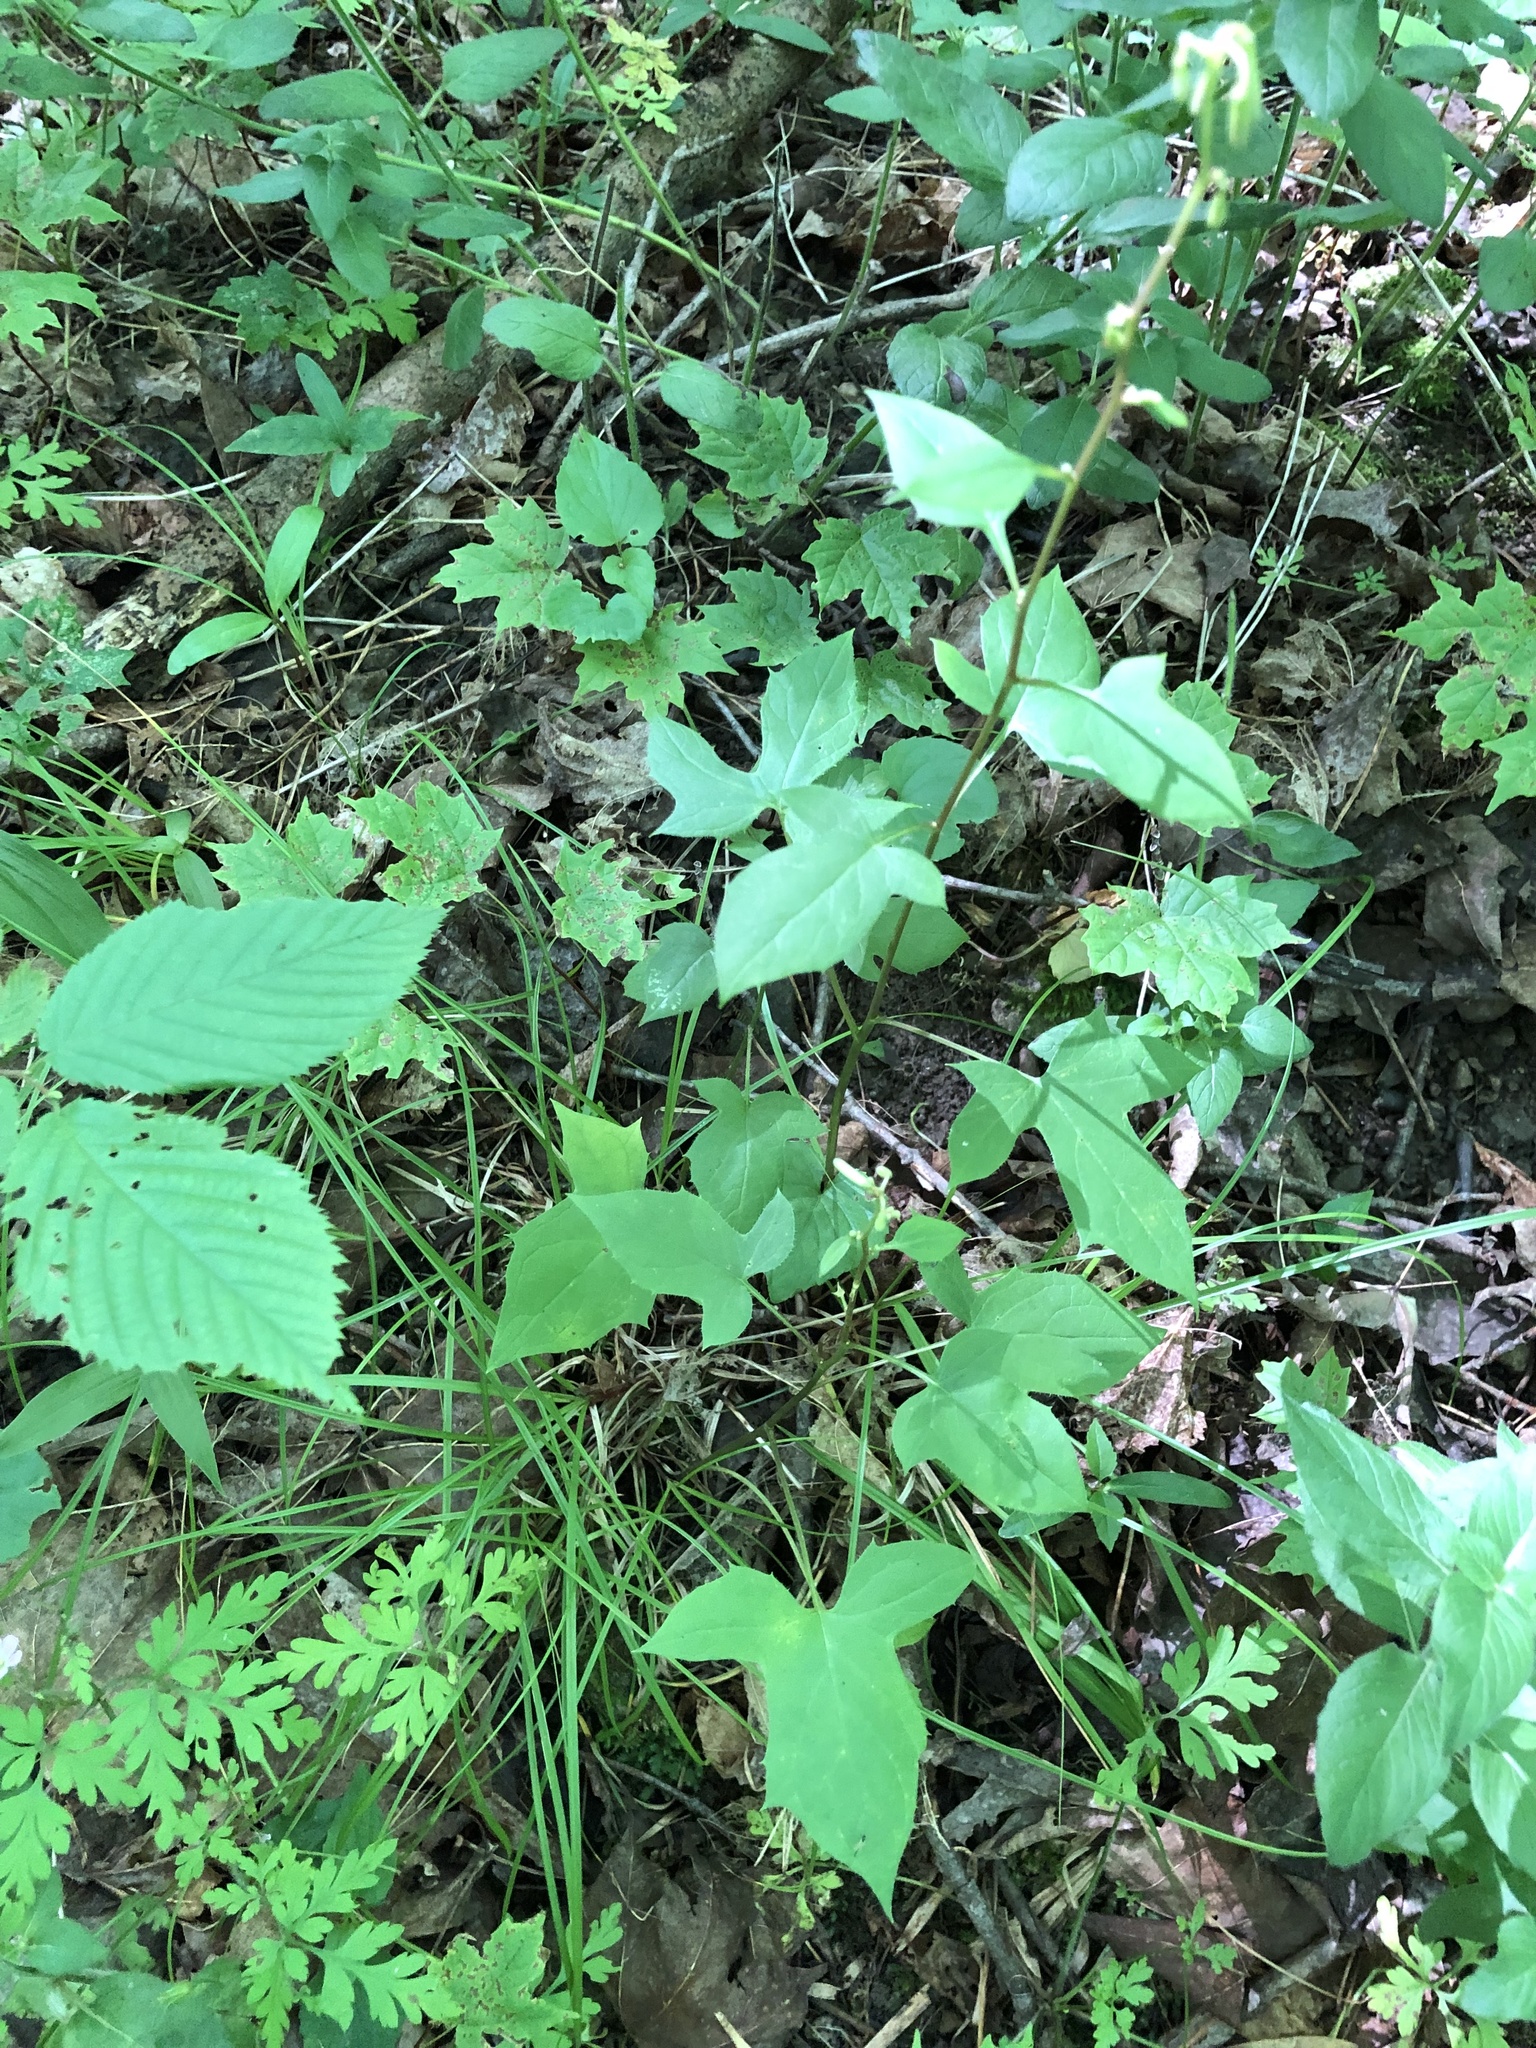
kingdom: Plantae
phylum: Tracheophyta
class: Magnoliopsida
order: Asterales
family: Asteraceae
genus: Nabalus
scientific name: Nabalus altissima
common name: Tall rattlesnakeroot
